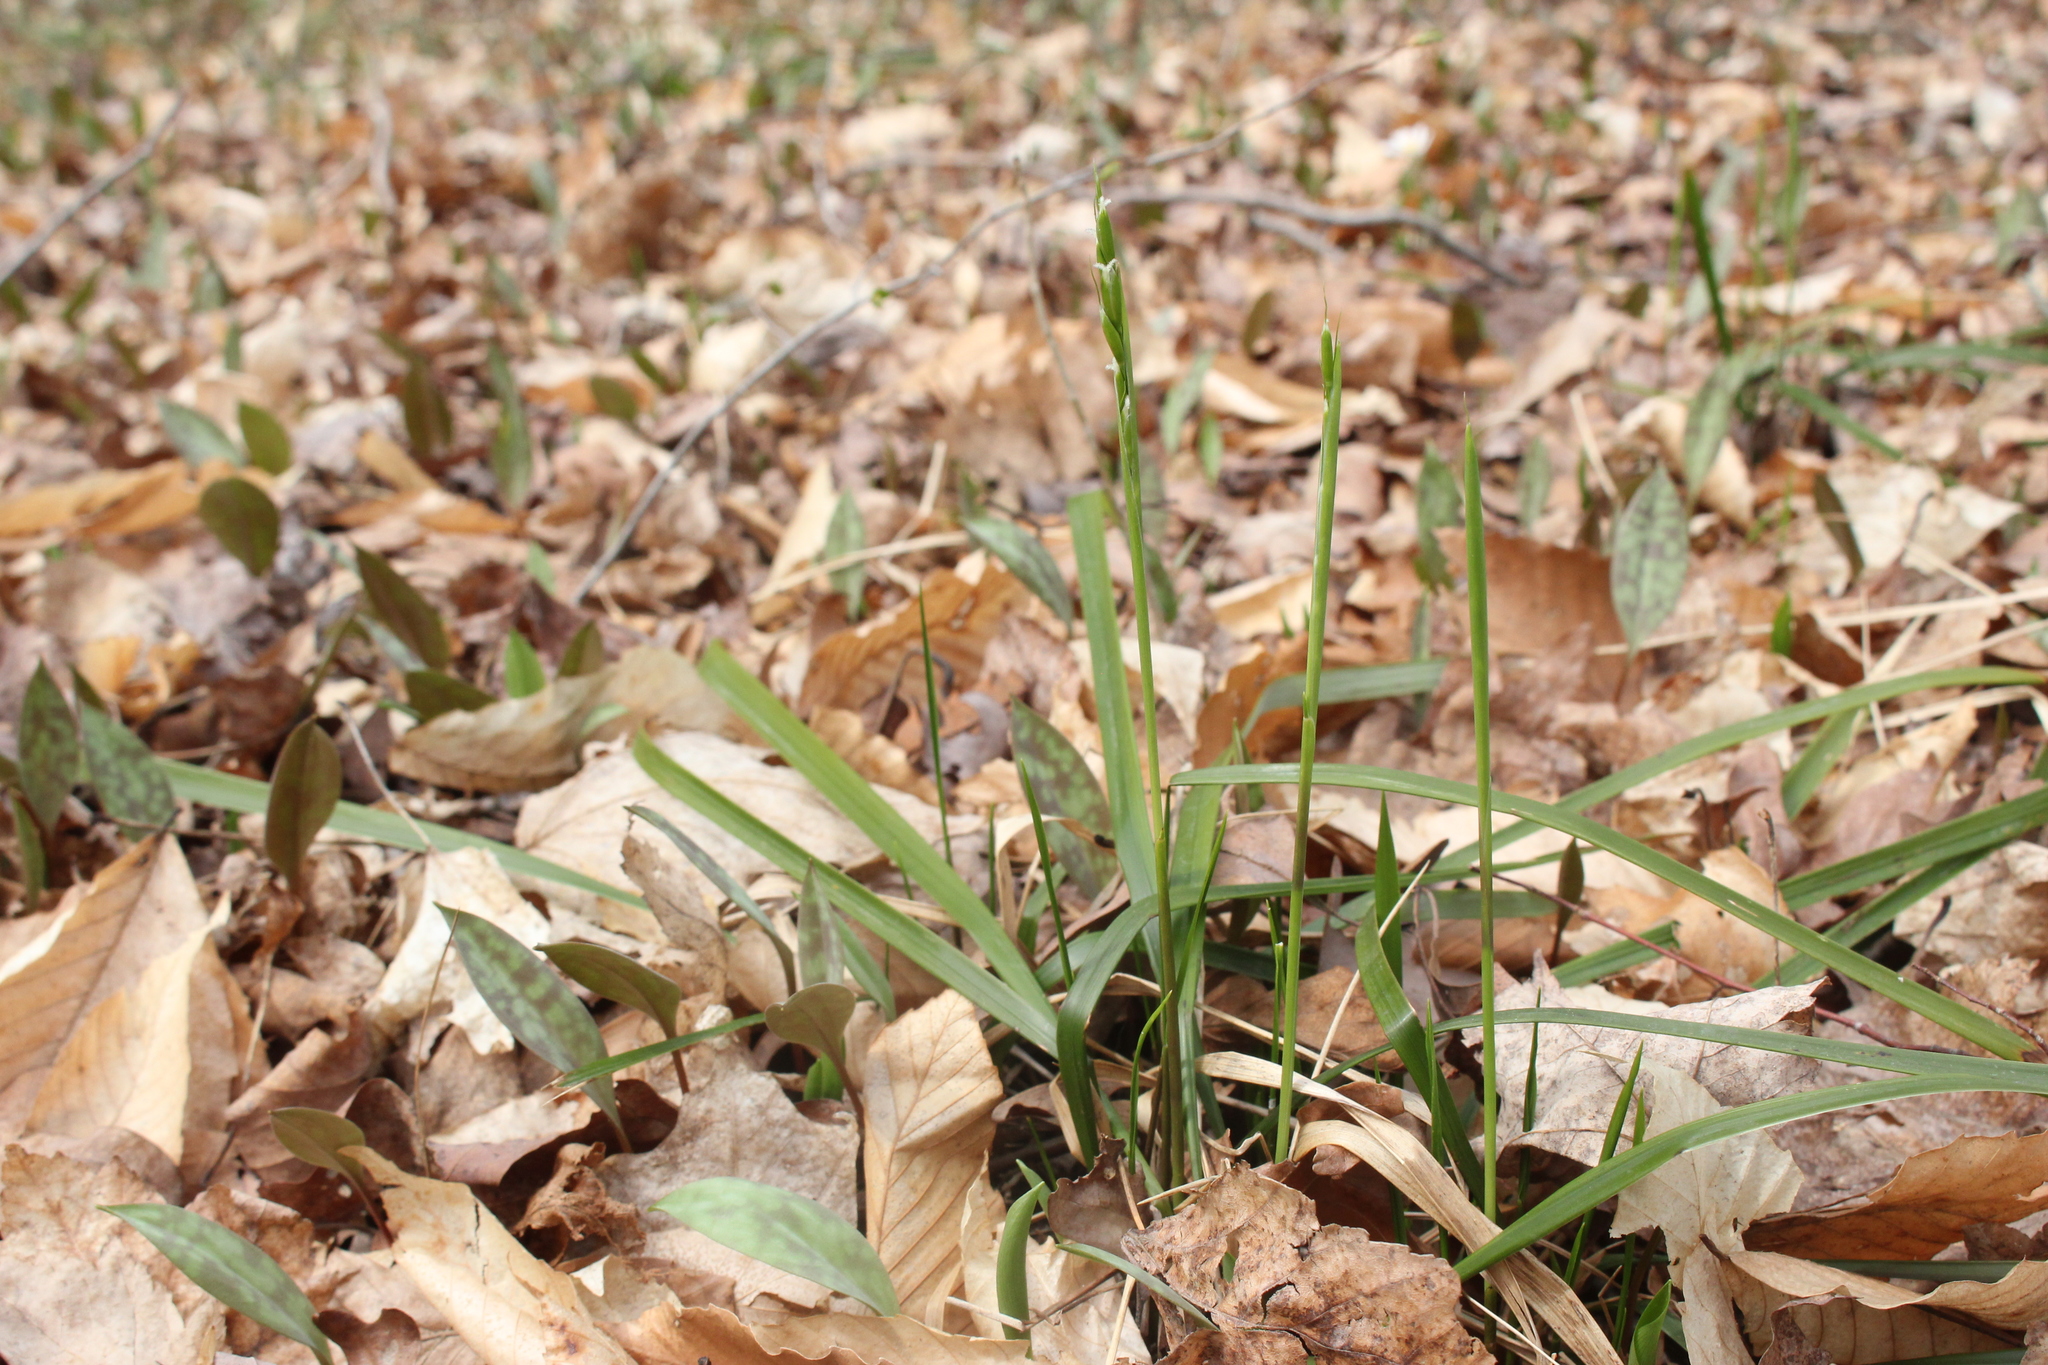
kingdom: Plantae
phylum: Tracheophyta
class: Liliopsida
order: Poales
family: Poaceae
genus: Oryzopsis
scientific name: Oryzopsis asperifolia
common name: Rough-leaved mountain rice
